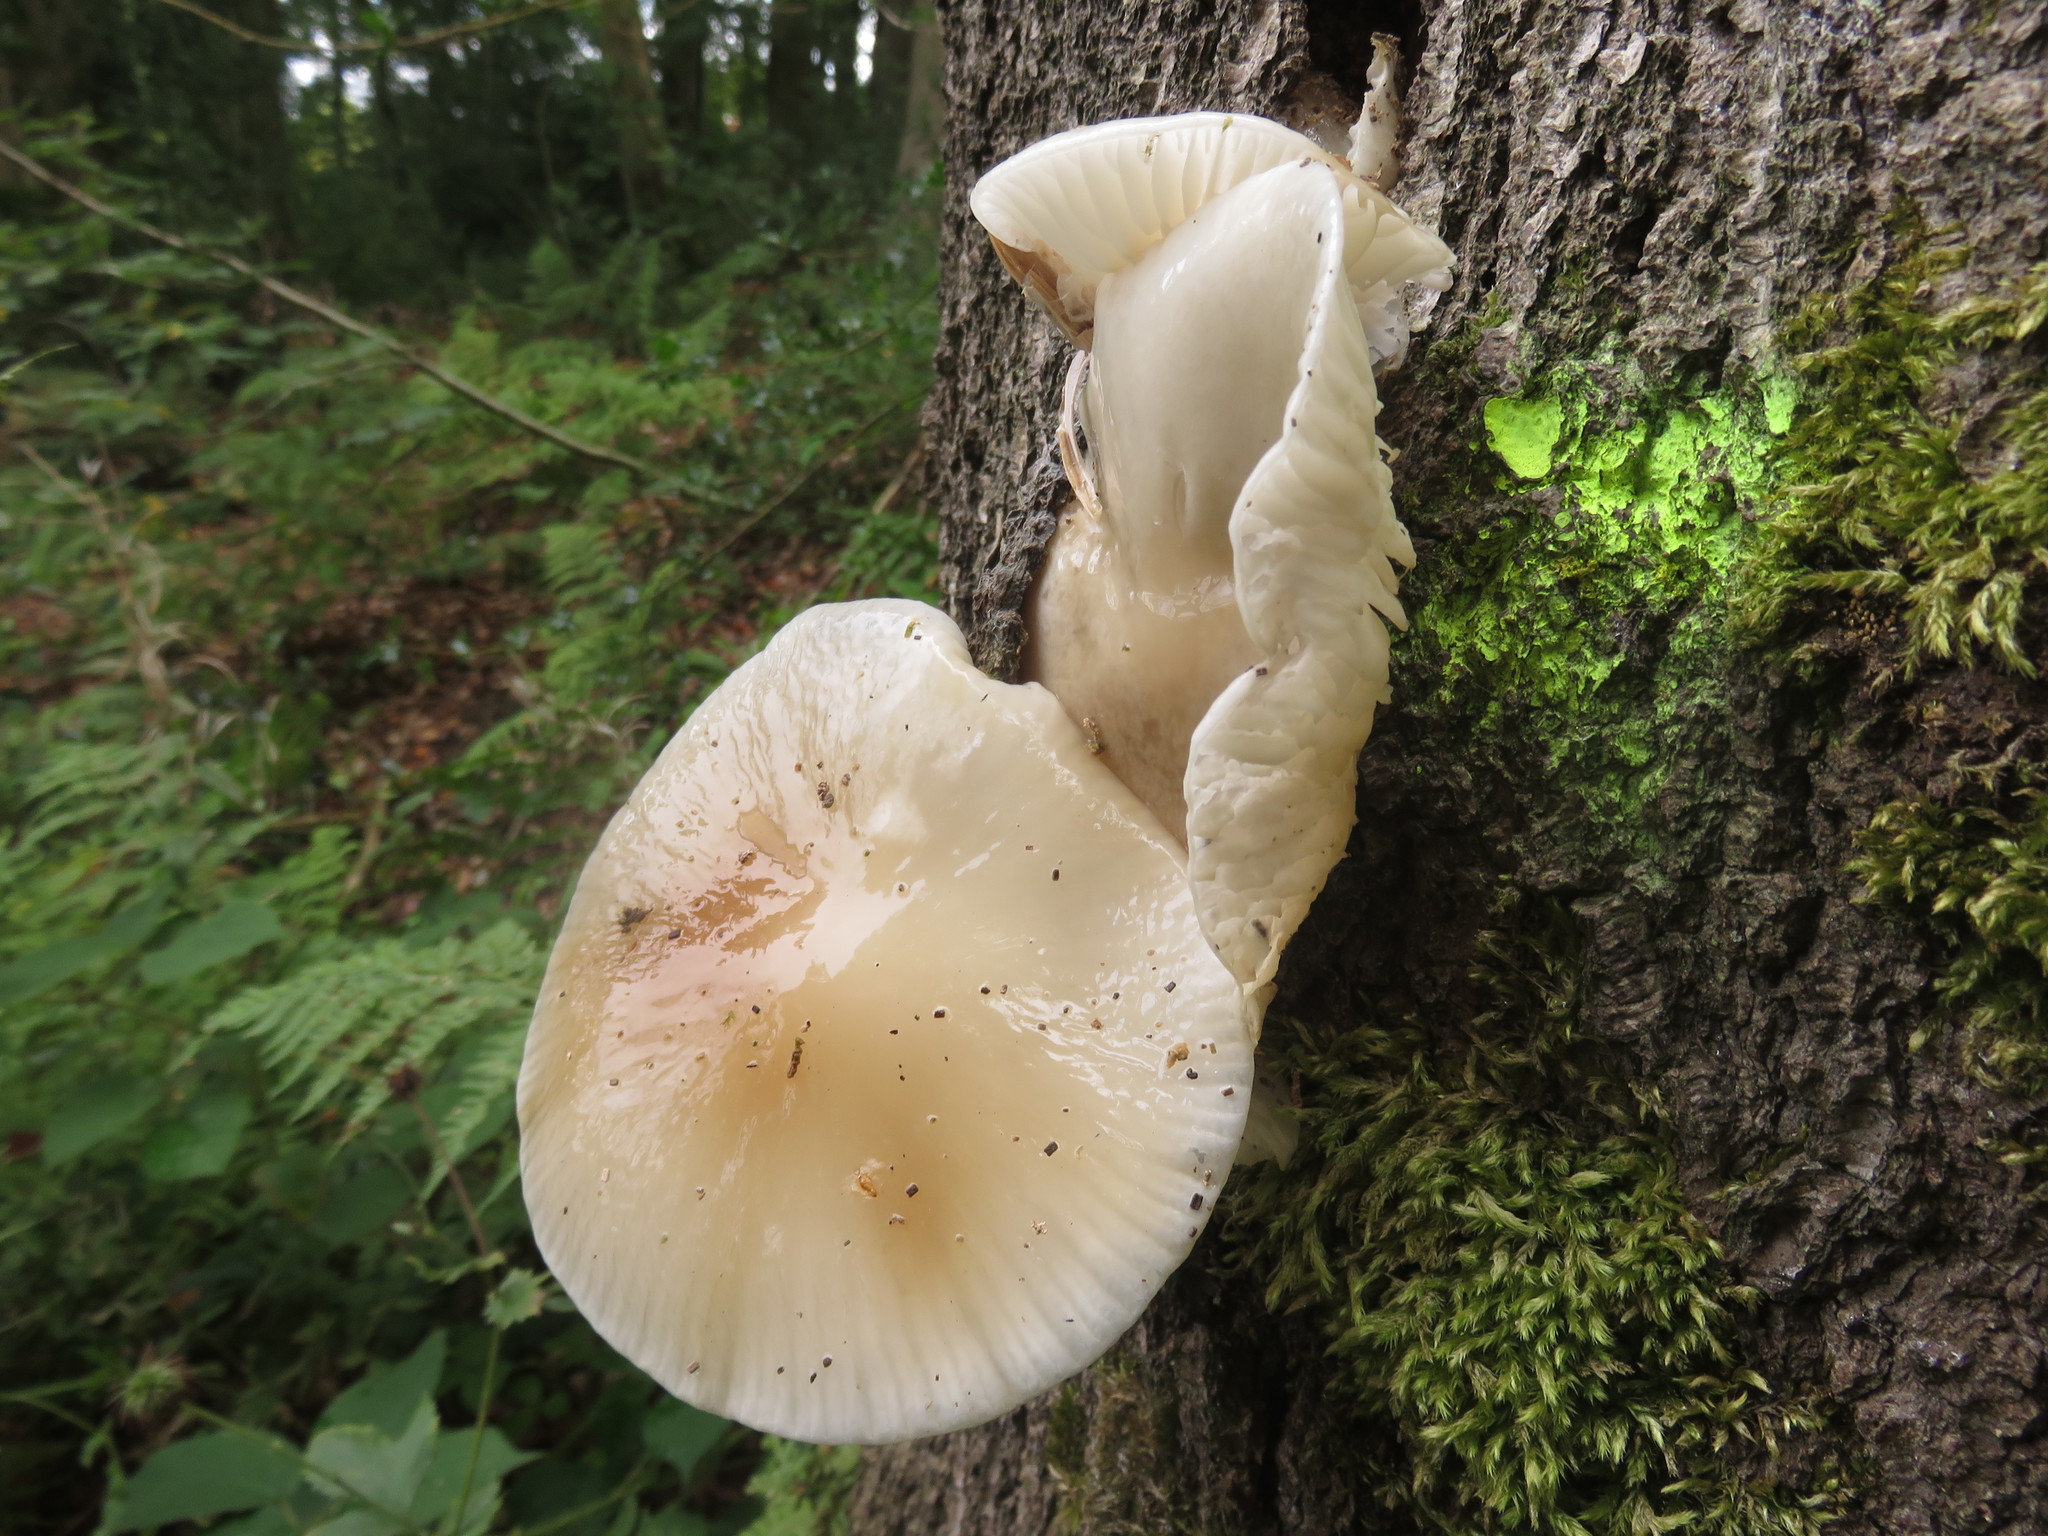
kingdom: Fungi
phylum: Basidiomycota
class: Agaricomycetes
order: Agaricales
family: Physalacriaceae
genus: Mucidula
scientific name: Mucidula mucida
